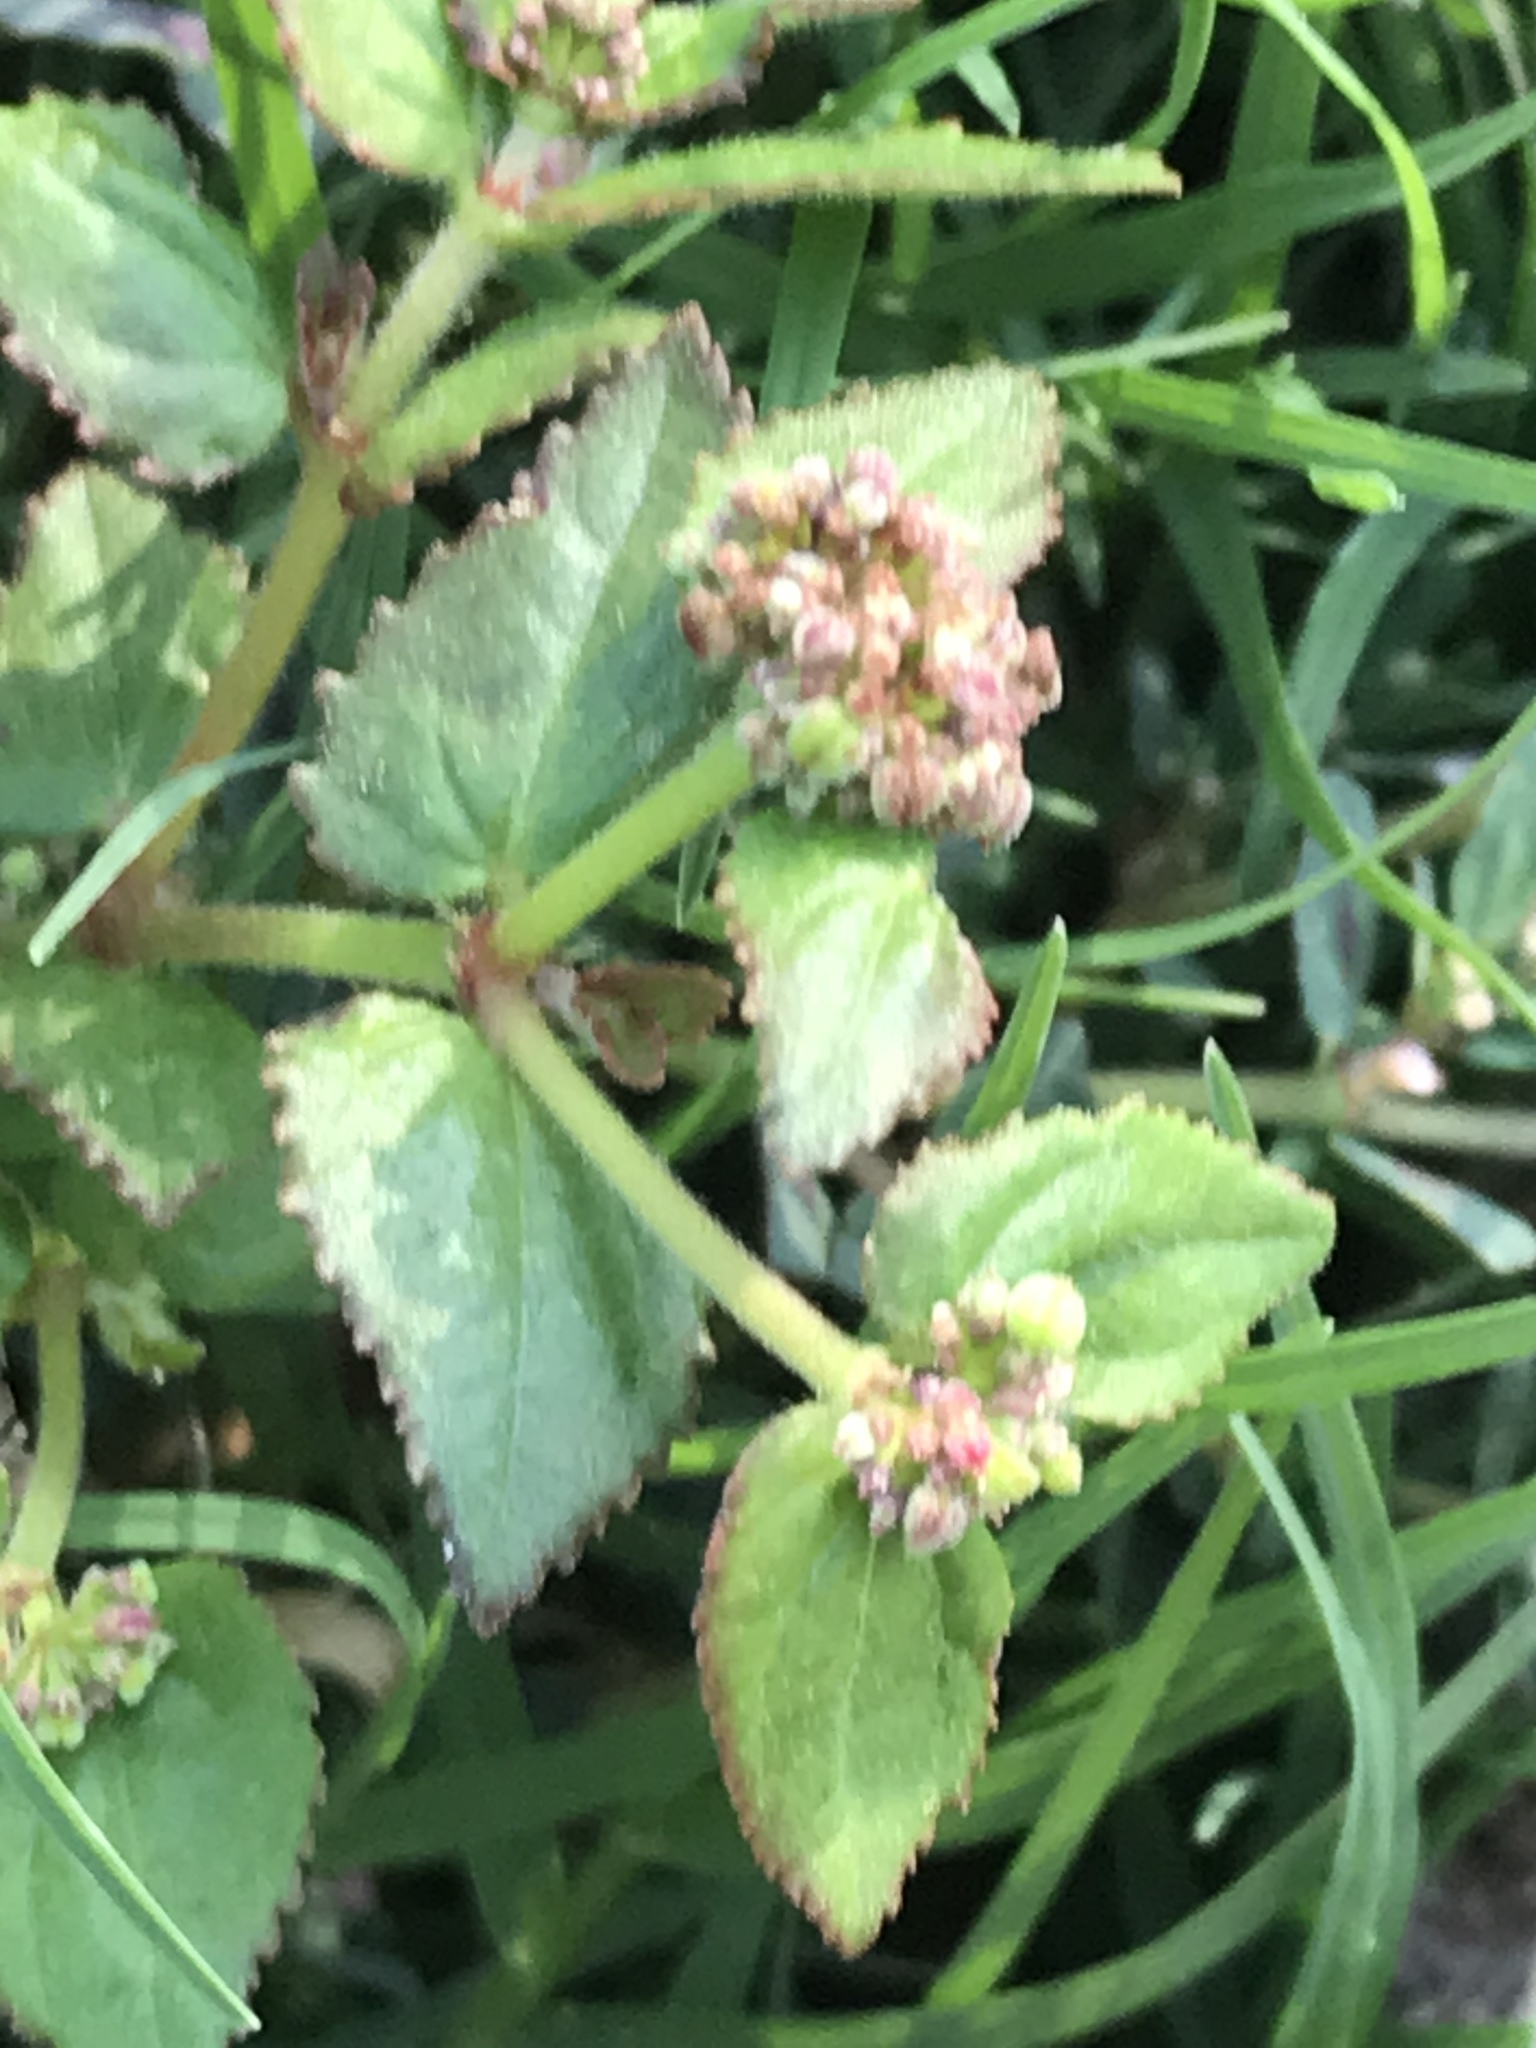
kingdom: Plantae
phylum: Tracheophyta
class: Magnoliopsida
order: Malpighiales
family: Euphorbiaceae
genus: Euphorbia
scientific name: Euphorbia ophthalmica
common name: Florida hammock sandmat
